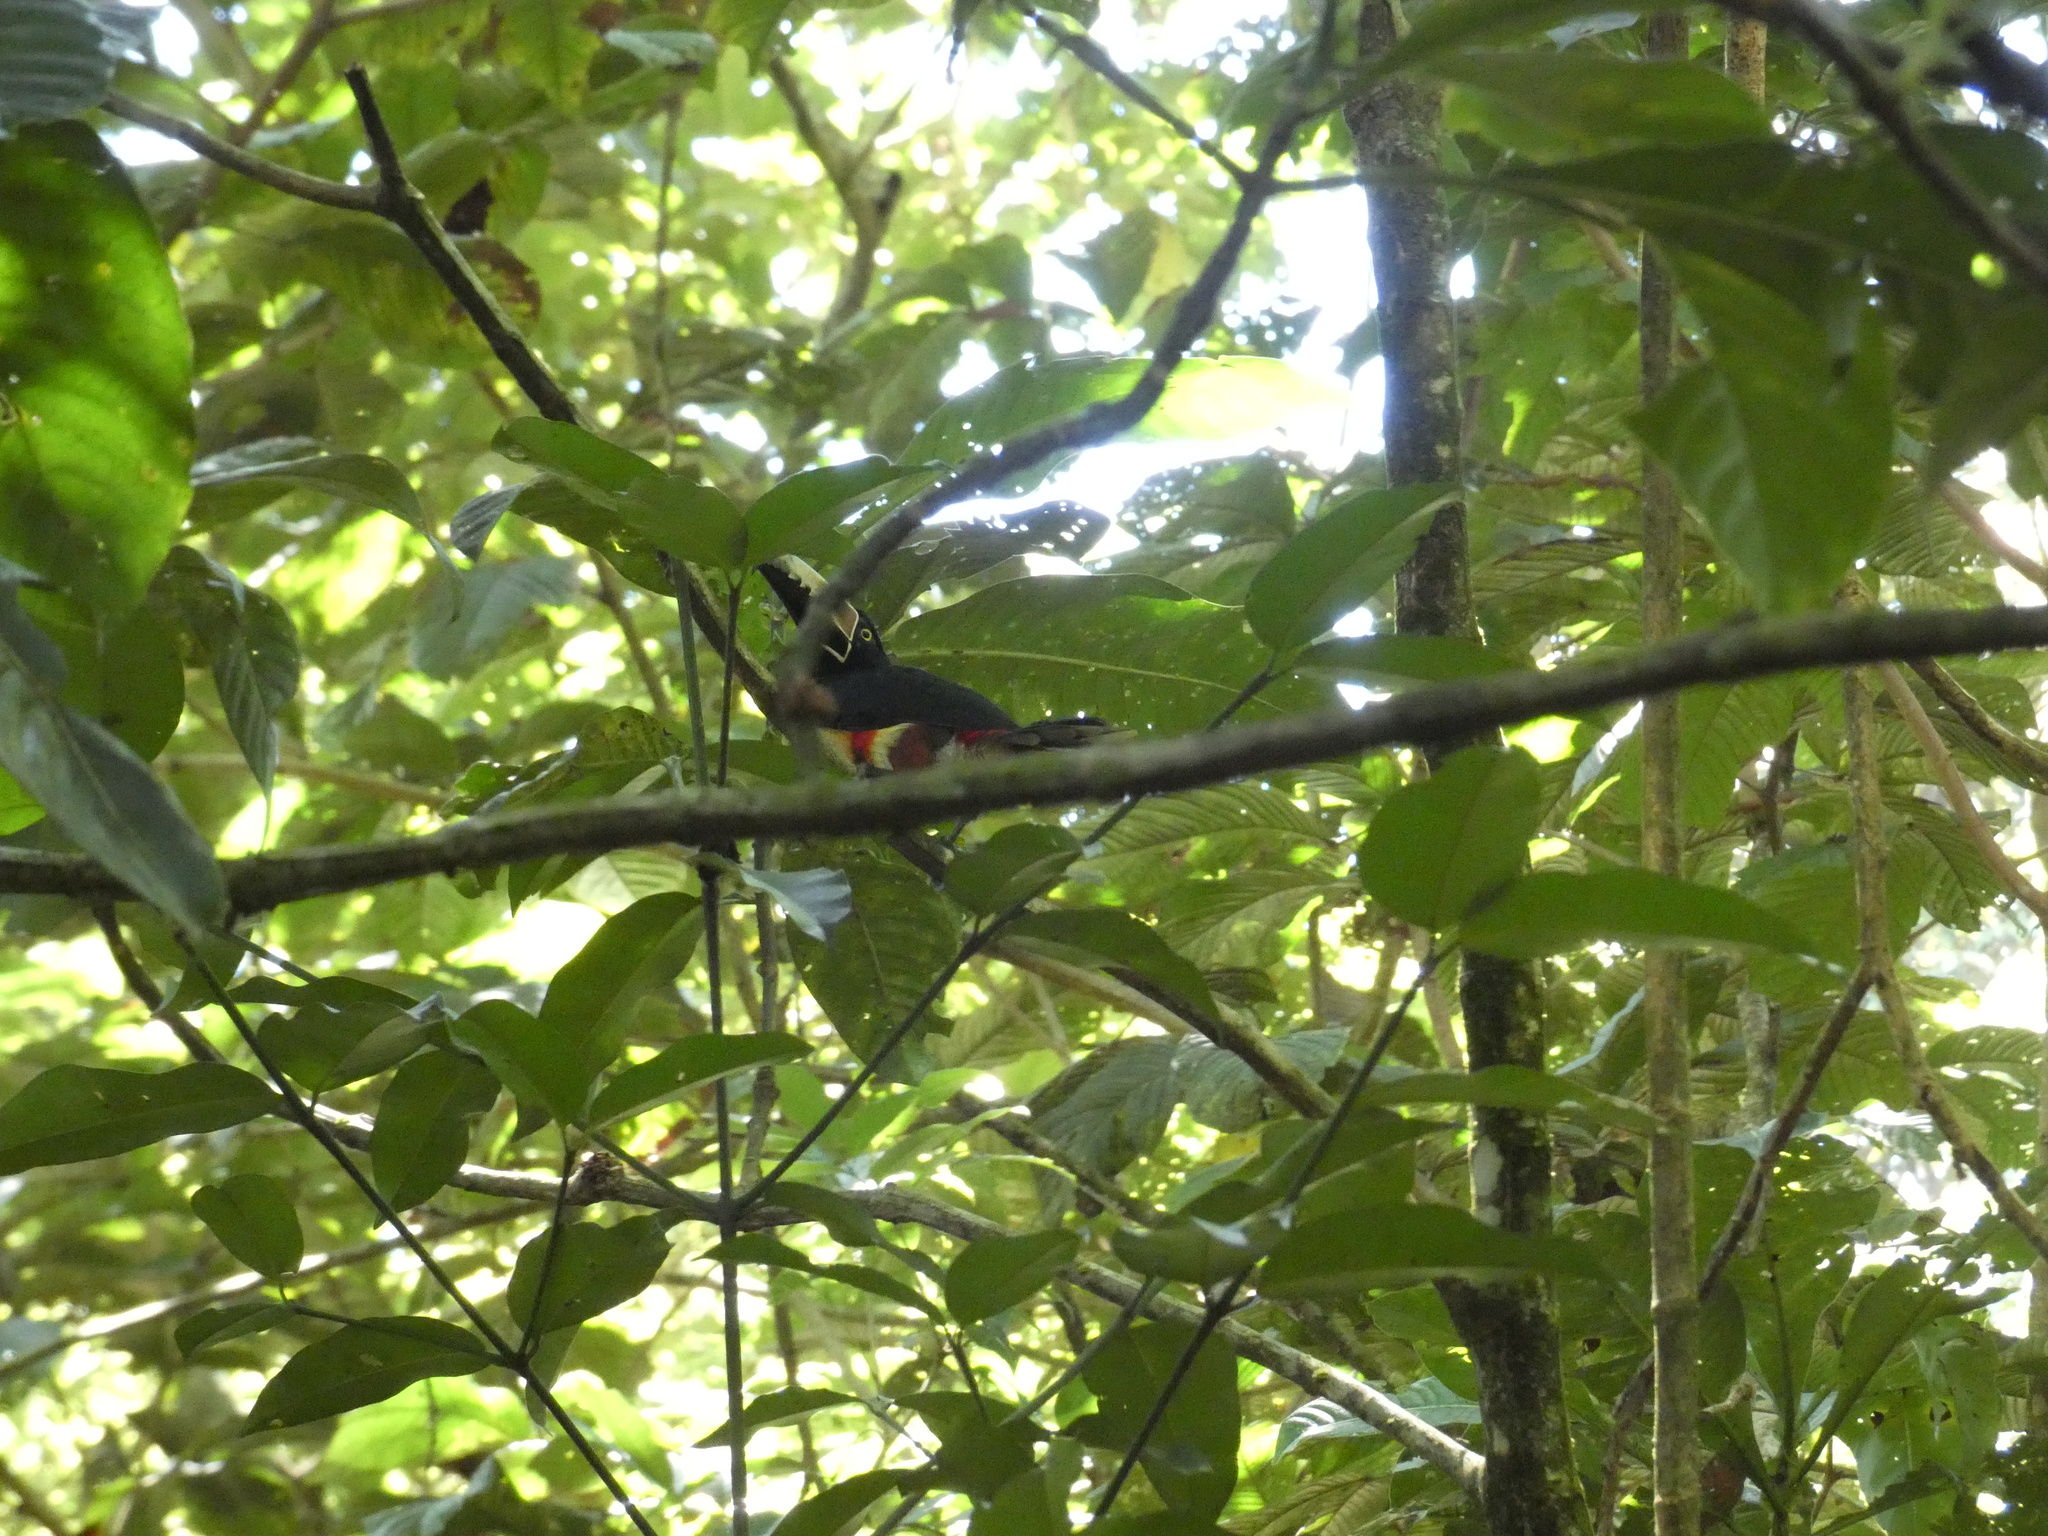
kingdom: Animalia
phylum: Chordata
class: Aves
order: Piciformes
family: Ramphastidae
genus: Pteroglossus
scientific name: Pteroglossus torquatus
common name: Collared aracari
